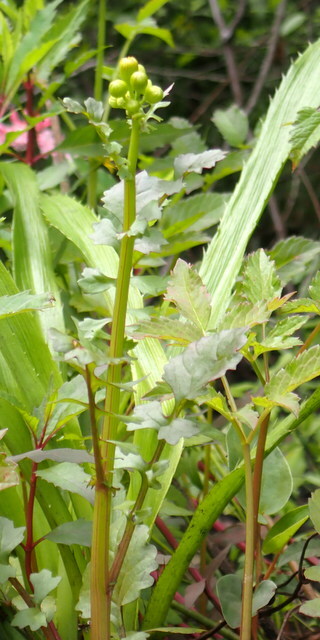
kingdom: Plantae
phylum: Tracheophyta
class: Magnoliopsida
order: Asterales
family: Asteraceae
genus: Packera
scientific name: Packera glabella
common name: Butterweed
